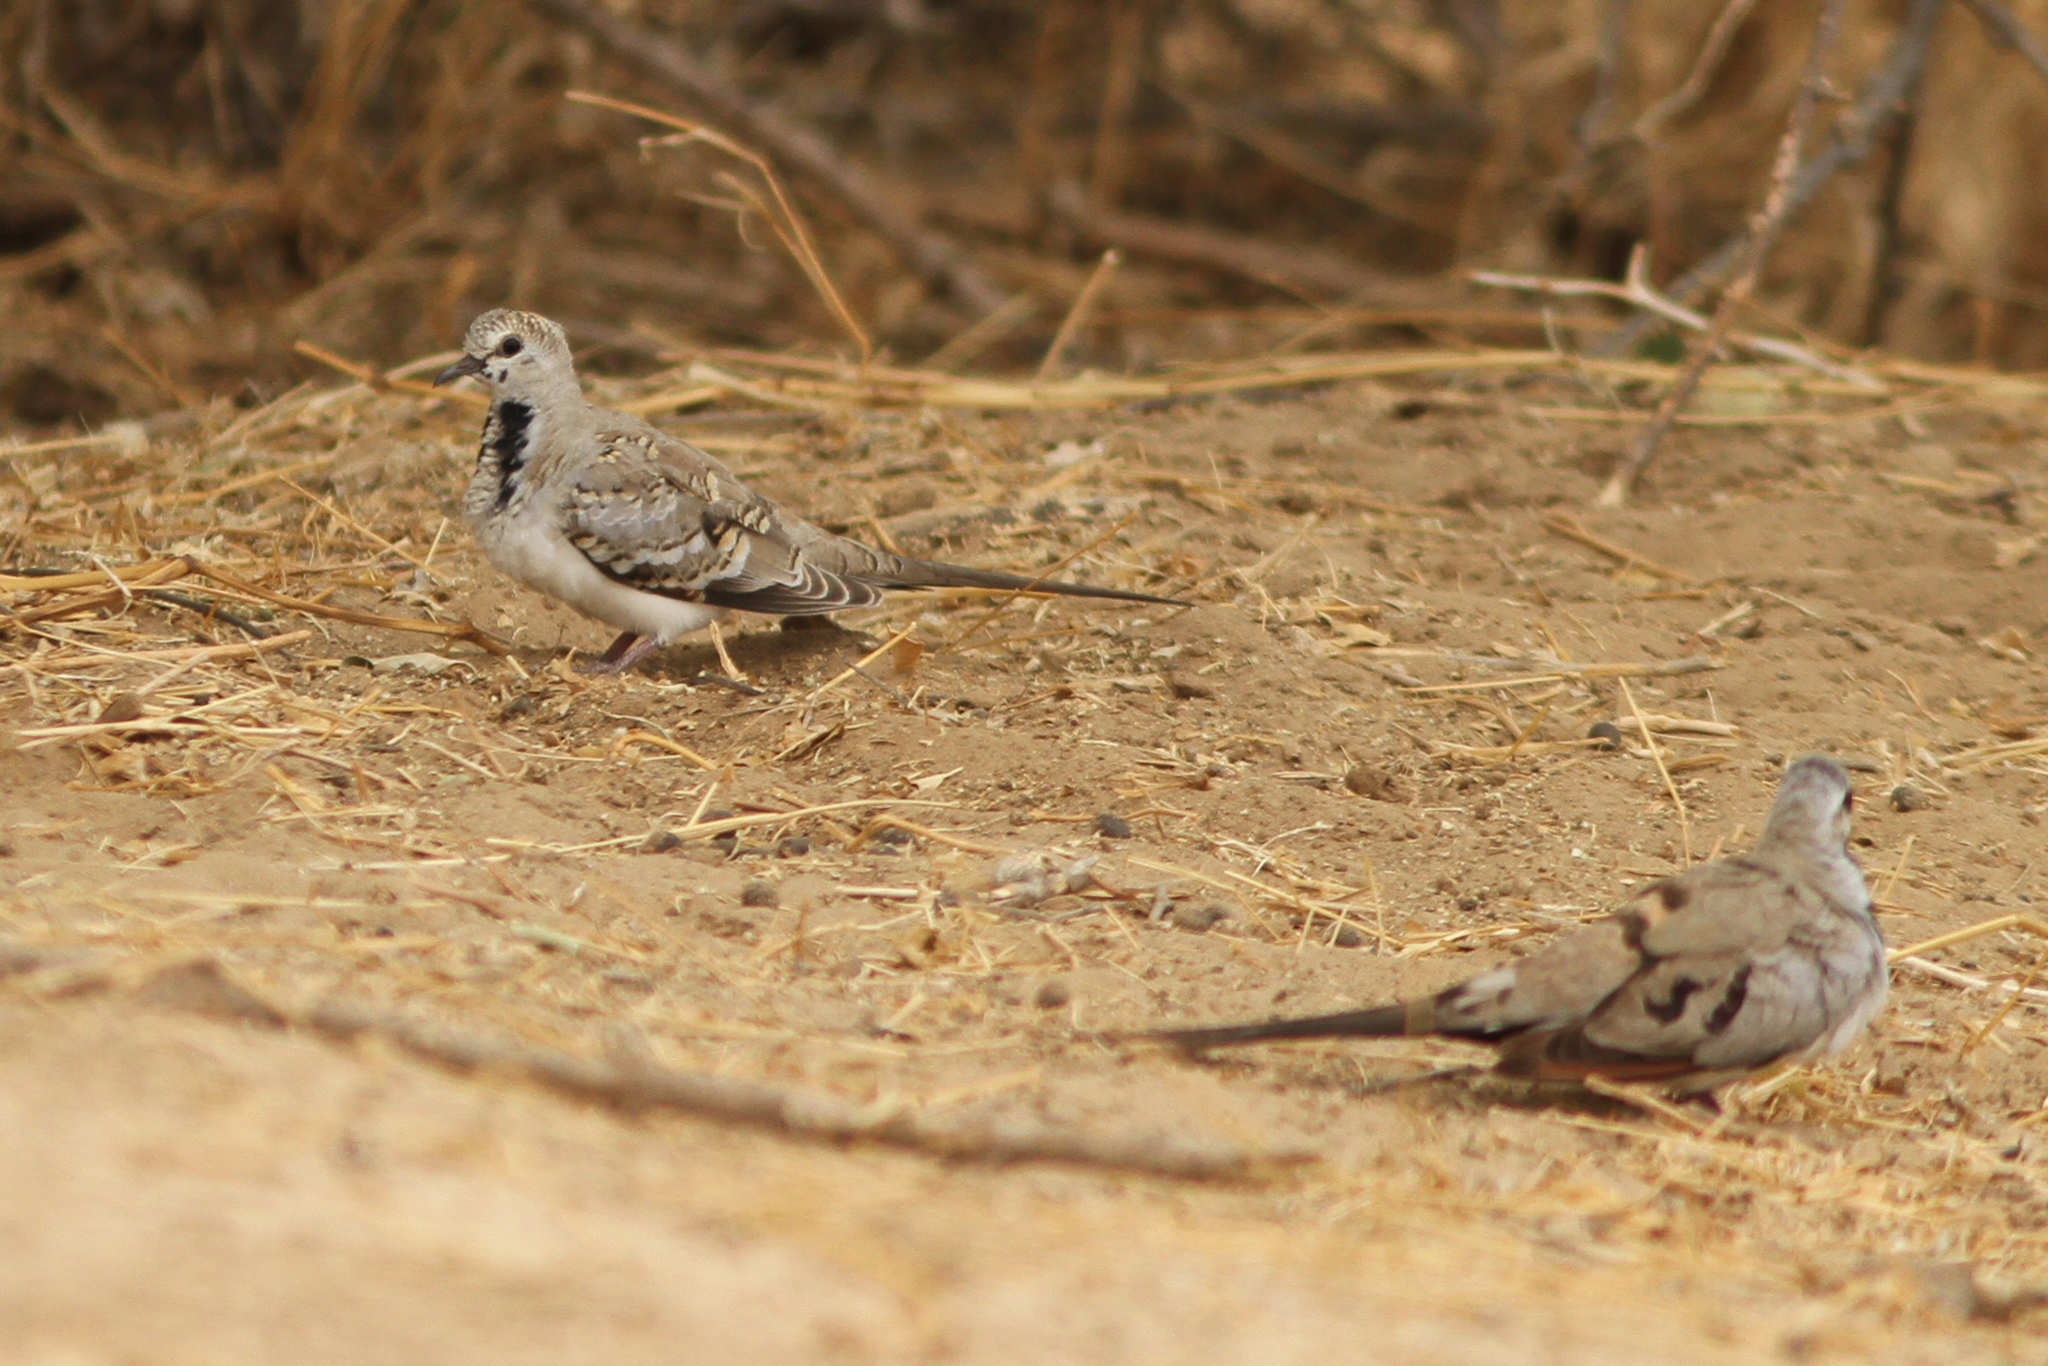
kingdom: Animalia
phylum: Chordata
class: Aves
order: Columbiformes
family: Columbidae
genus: Oena
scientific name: Oena capensis
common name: Namaqua dove
